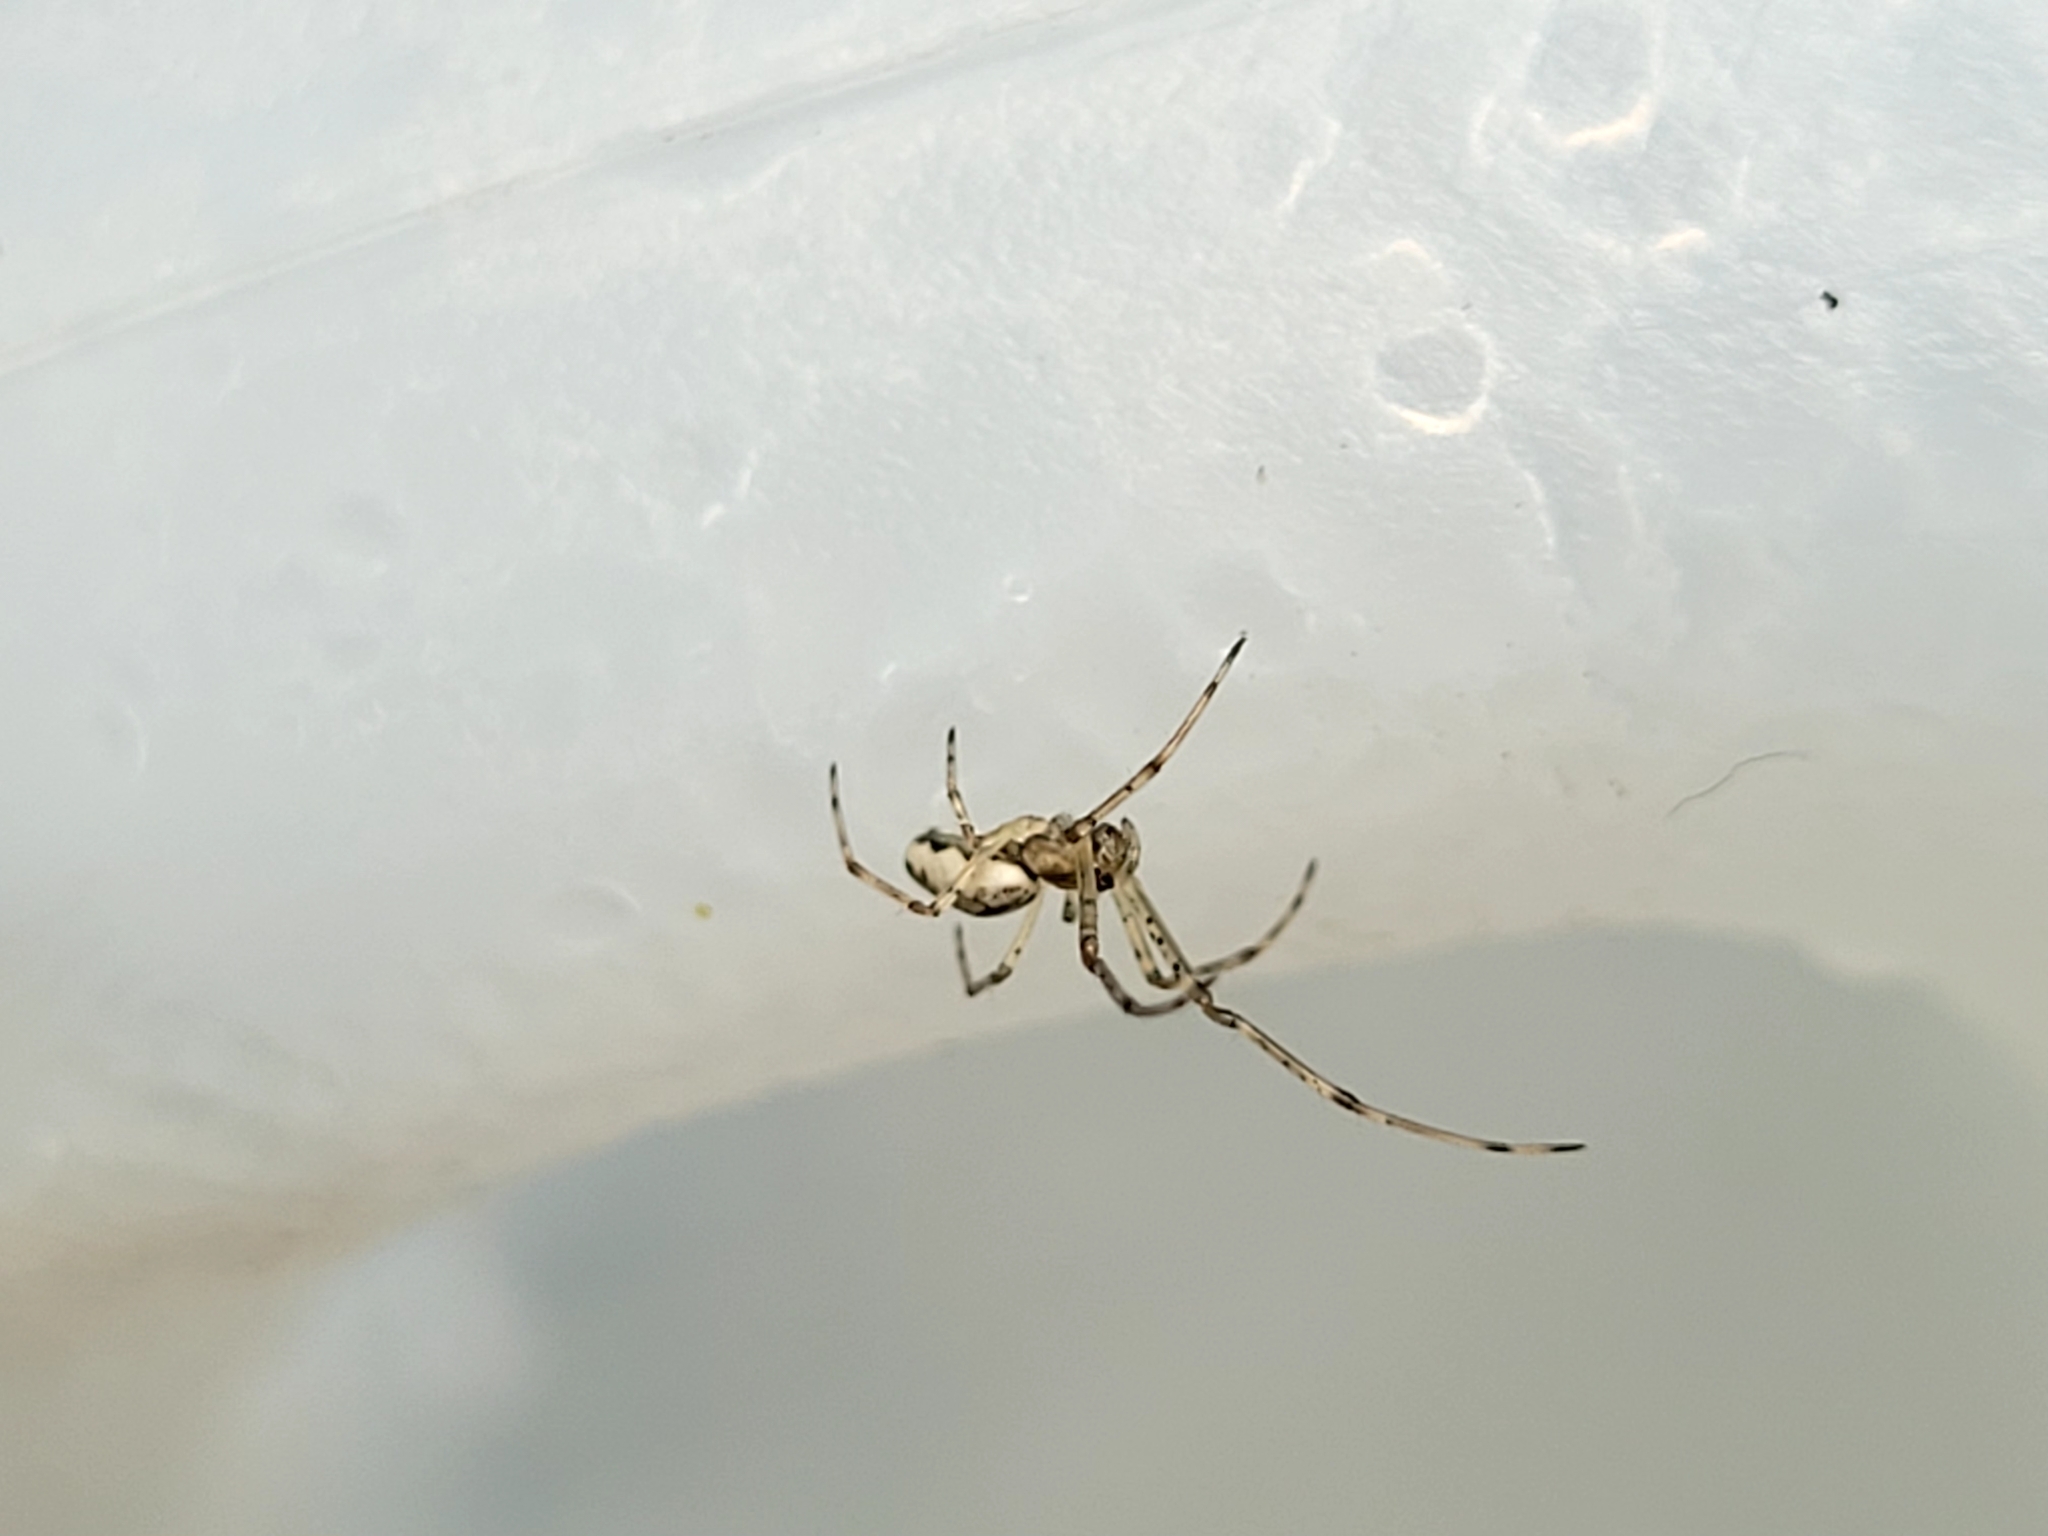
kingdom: Animalia
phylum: Arthropoda
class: Arachnida
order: Araneae
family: Tetragnathidae
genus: Tetragnatha
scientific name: Tetragnatha
